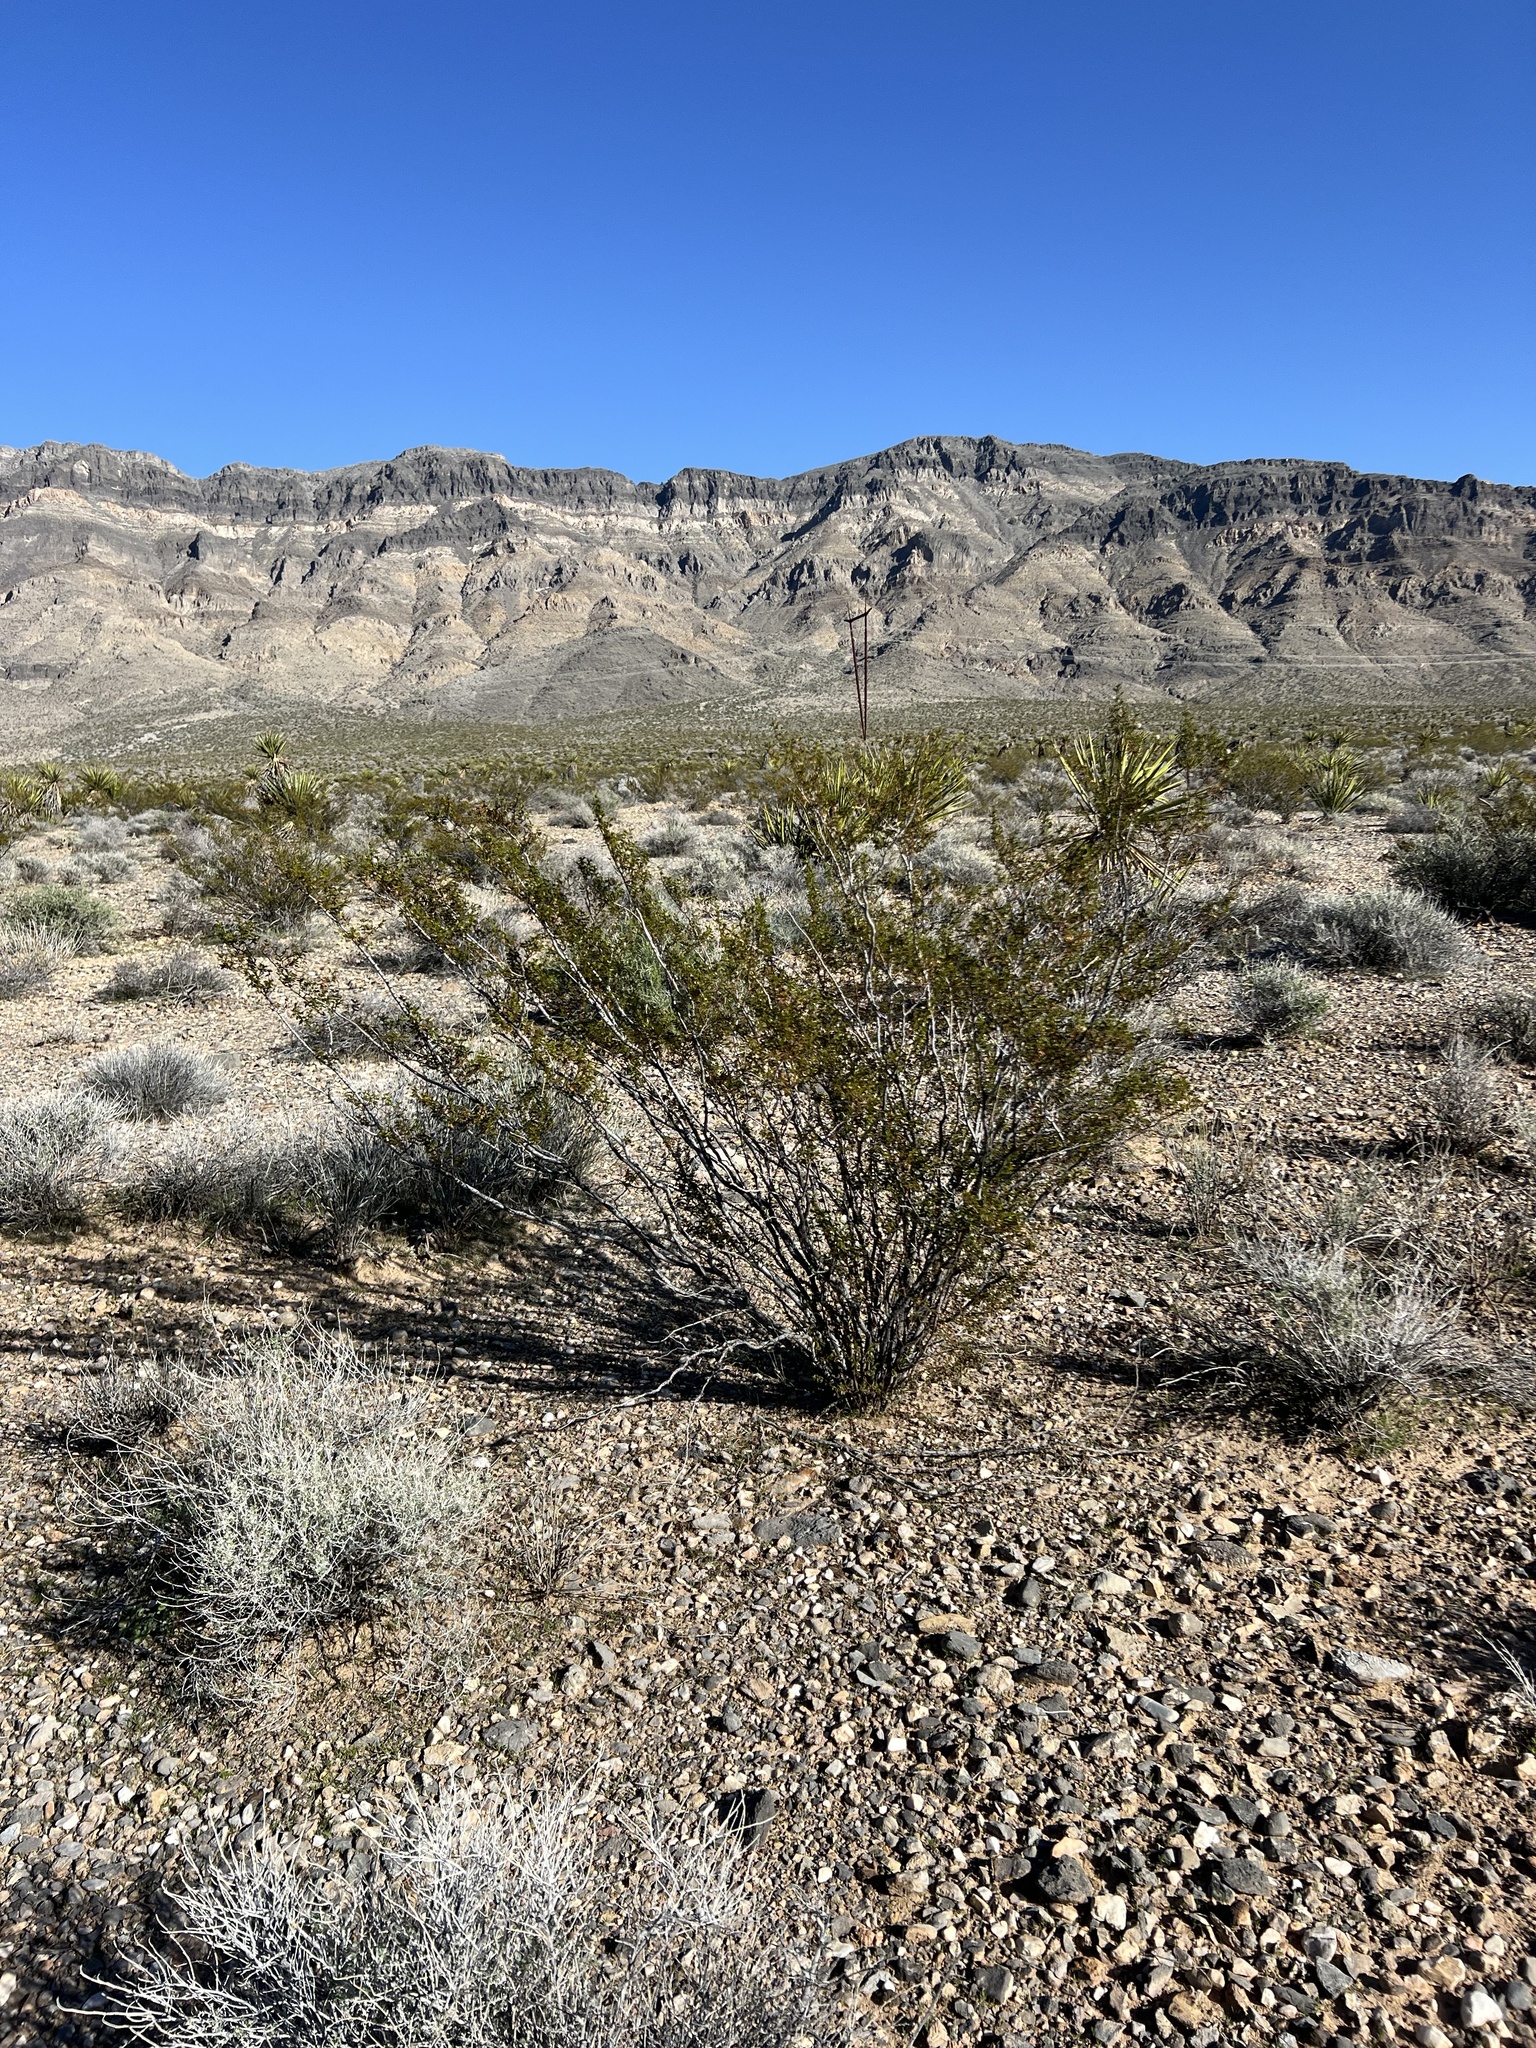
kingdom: Plantae
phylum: Tracheophyta
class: Magnoliopsida
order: Zygophyllales
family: Zygophyllaceae
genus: Larrea
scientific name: Larrea tridentata
